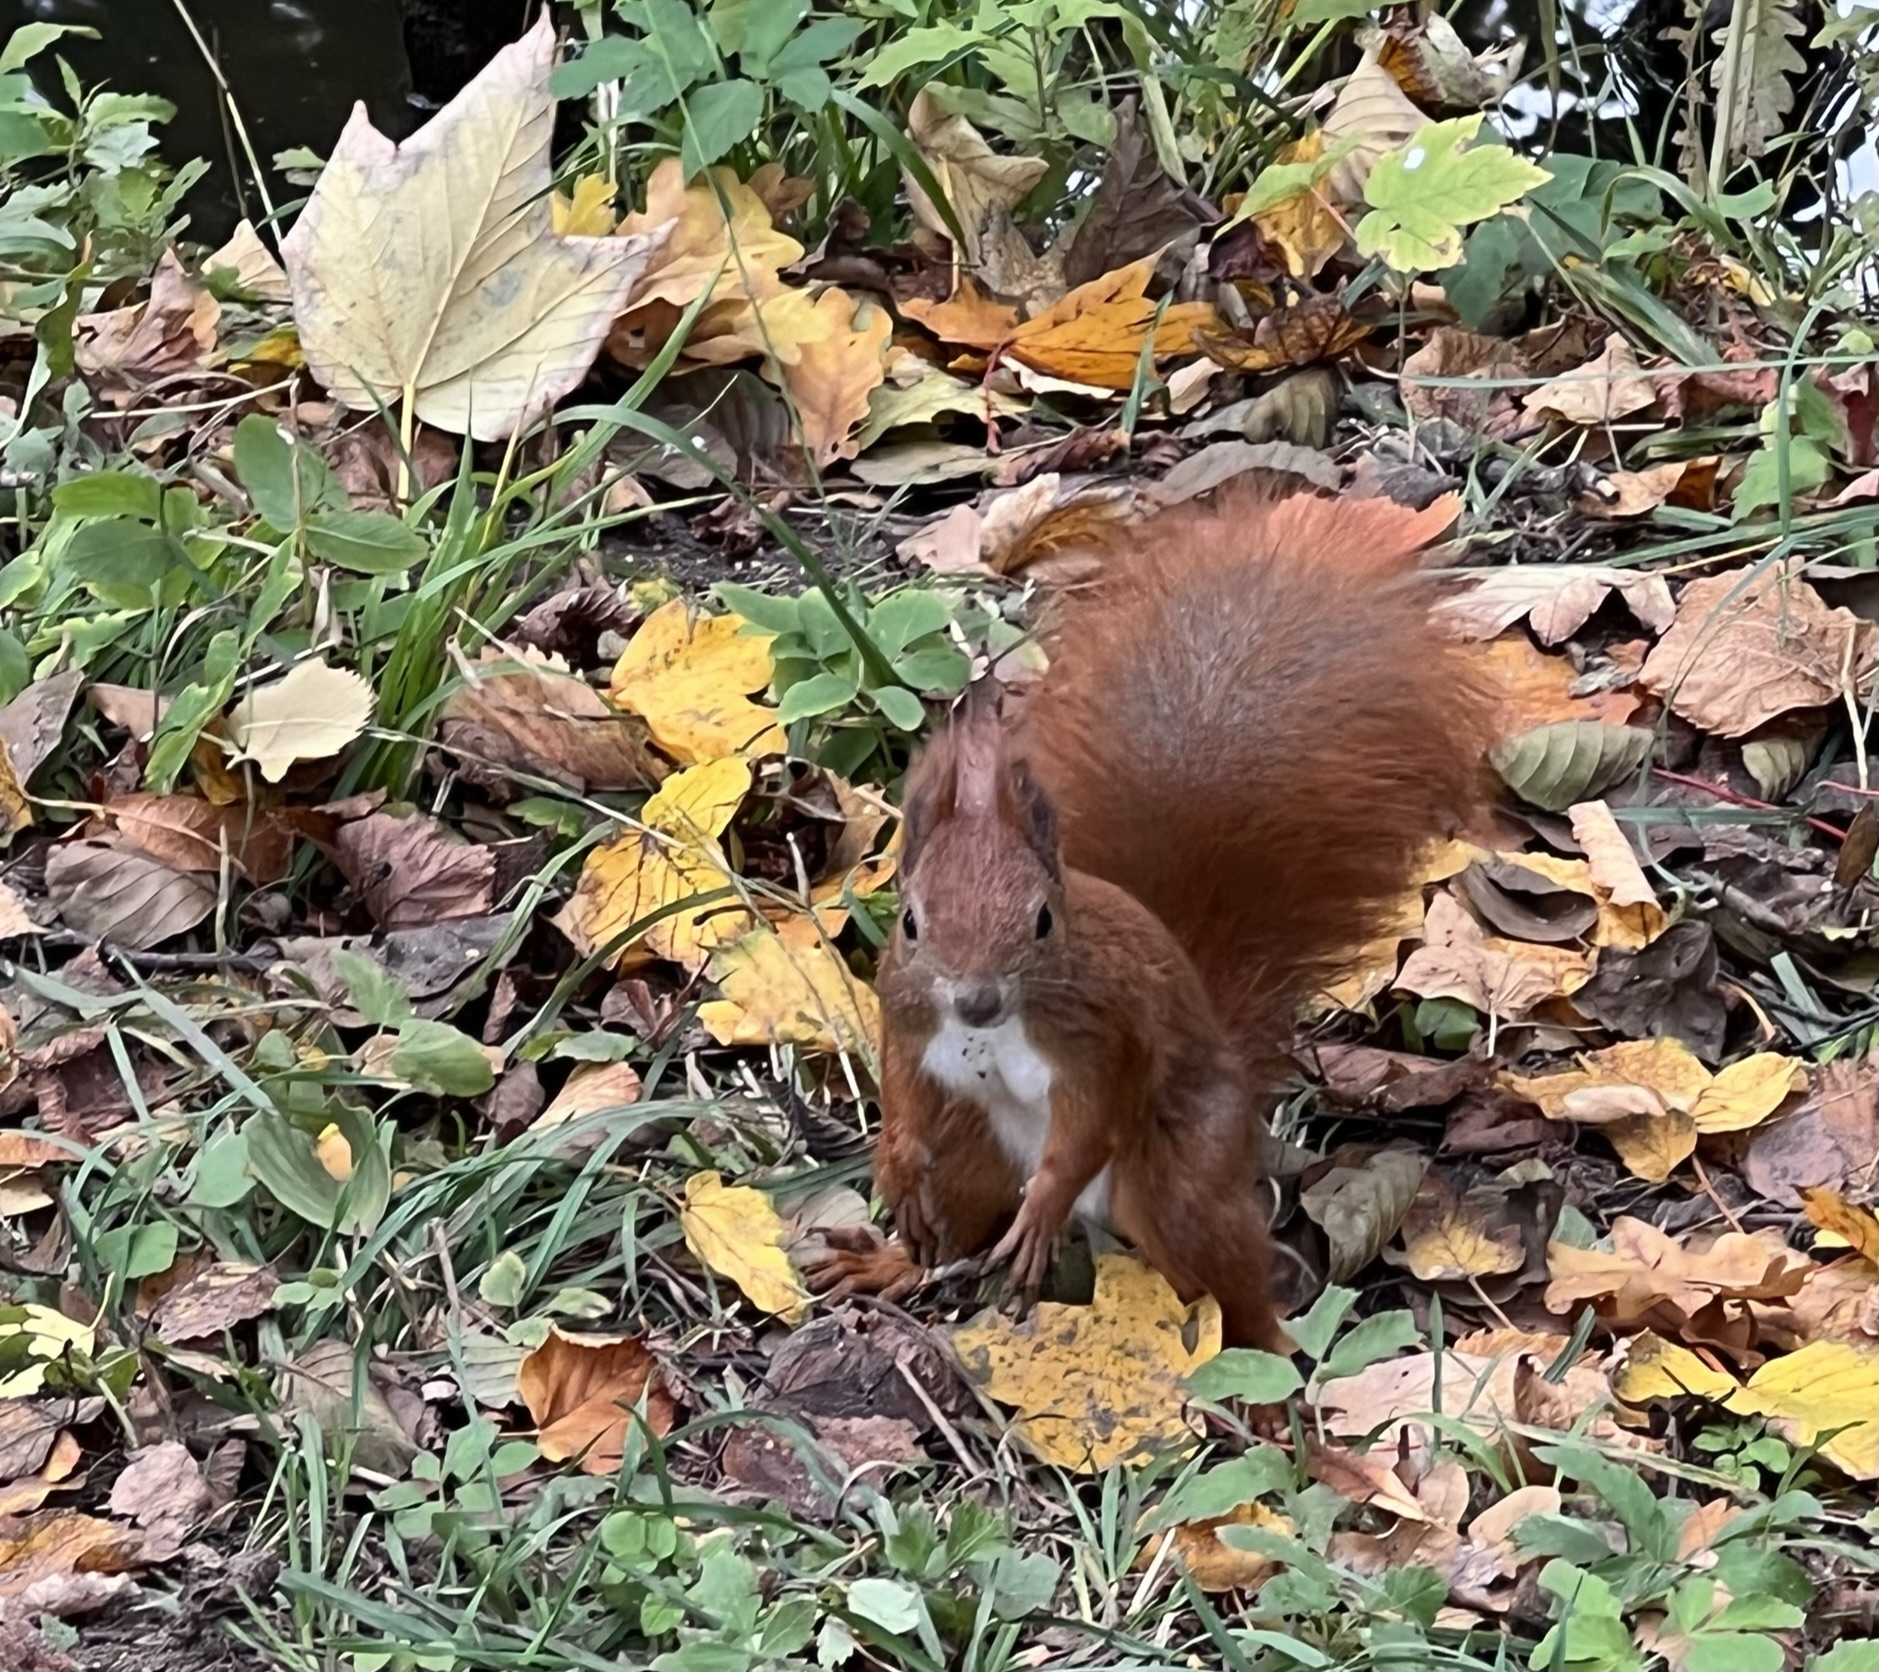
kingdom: Animalia
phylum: Chordata
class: Mammalia
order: Rodentia
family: Sciuridae
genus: Sciurus
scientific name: Sciurus vulgaris
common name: Eurasian red squirrel
